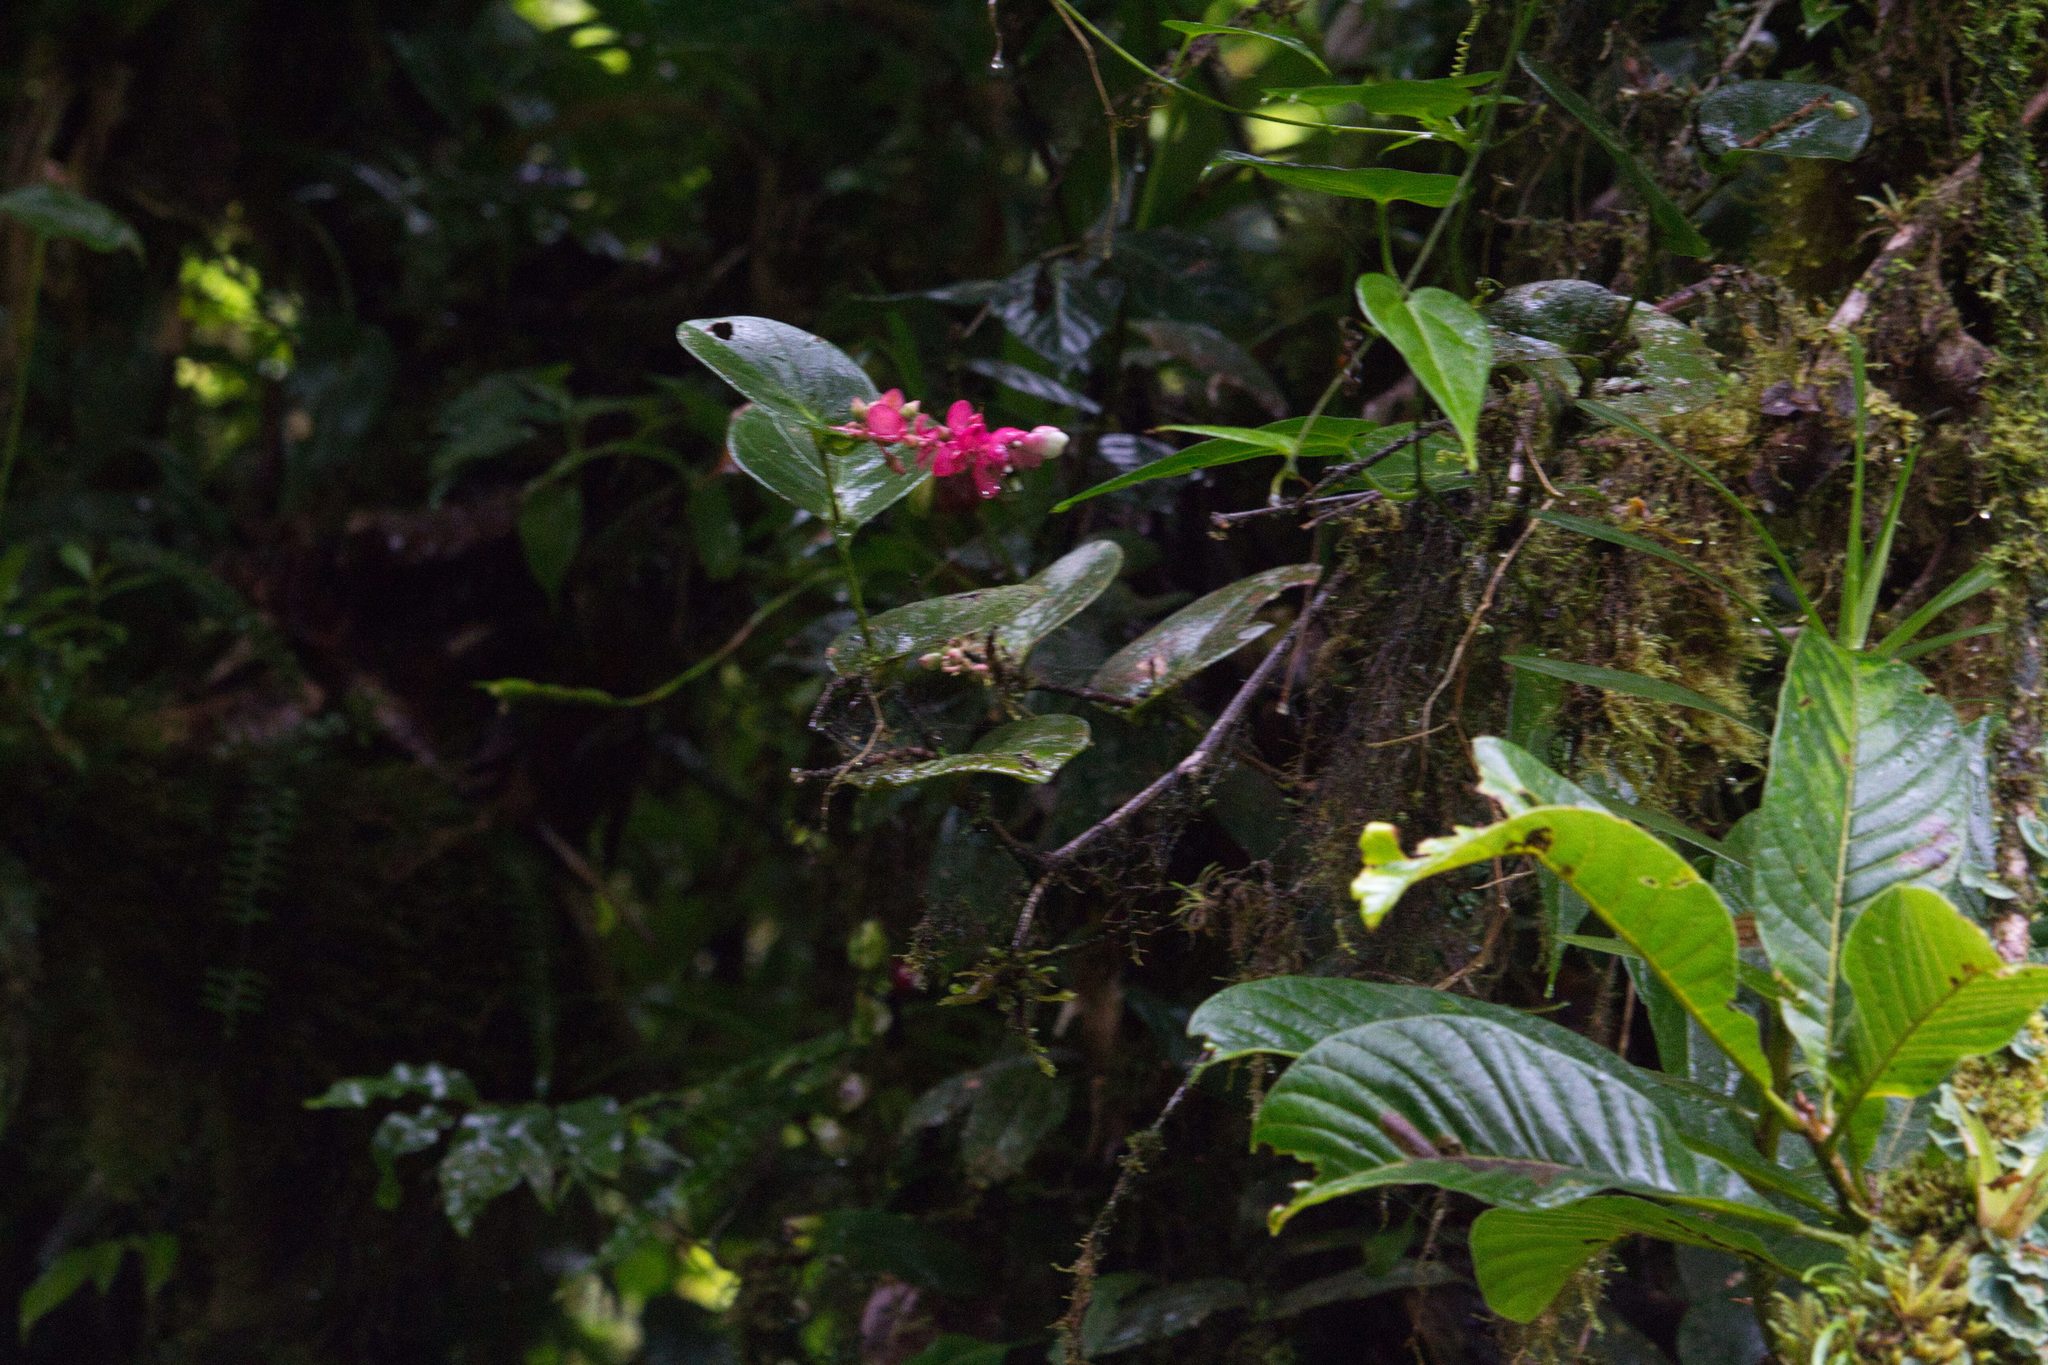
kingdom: Plantae
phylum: Tracheophyta
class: Magnoliopsida
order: Ericales
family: Ericaceae
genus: Cavendishia
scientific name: Cavendishia complectens
